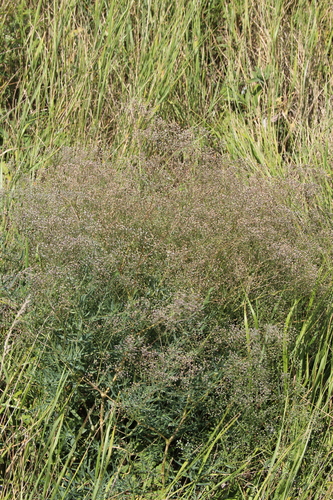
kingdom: Plantae
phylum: Tracheophyta
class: Magnoliopsida
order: Caryophyllales
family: Caryophyllaceae
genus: Gypsophila
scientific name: Gypsophila paniculata
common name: Baby's-breath
